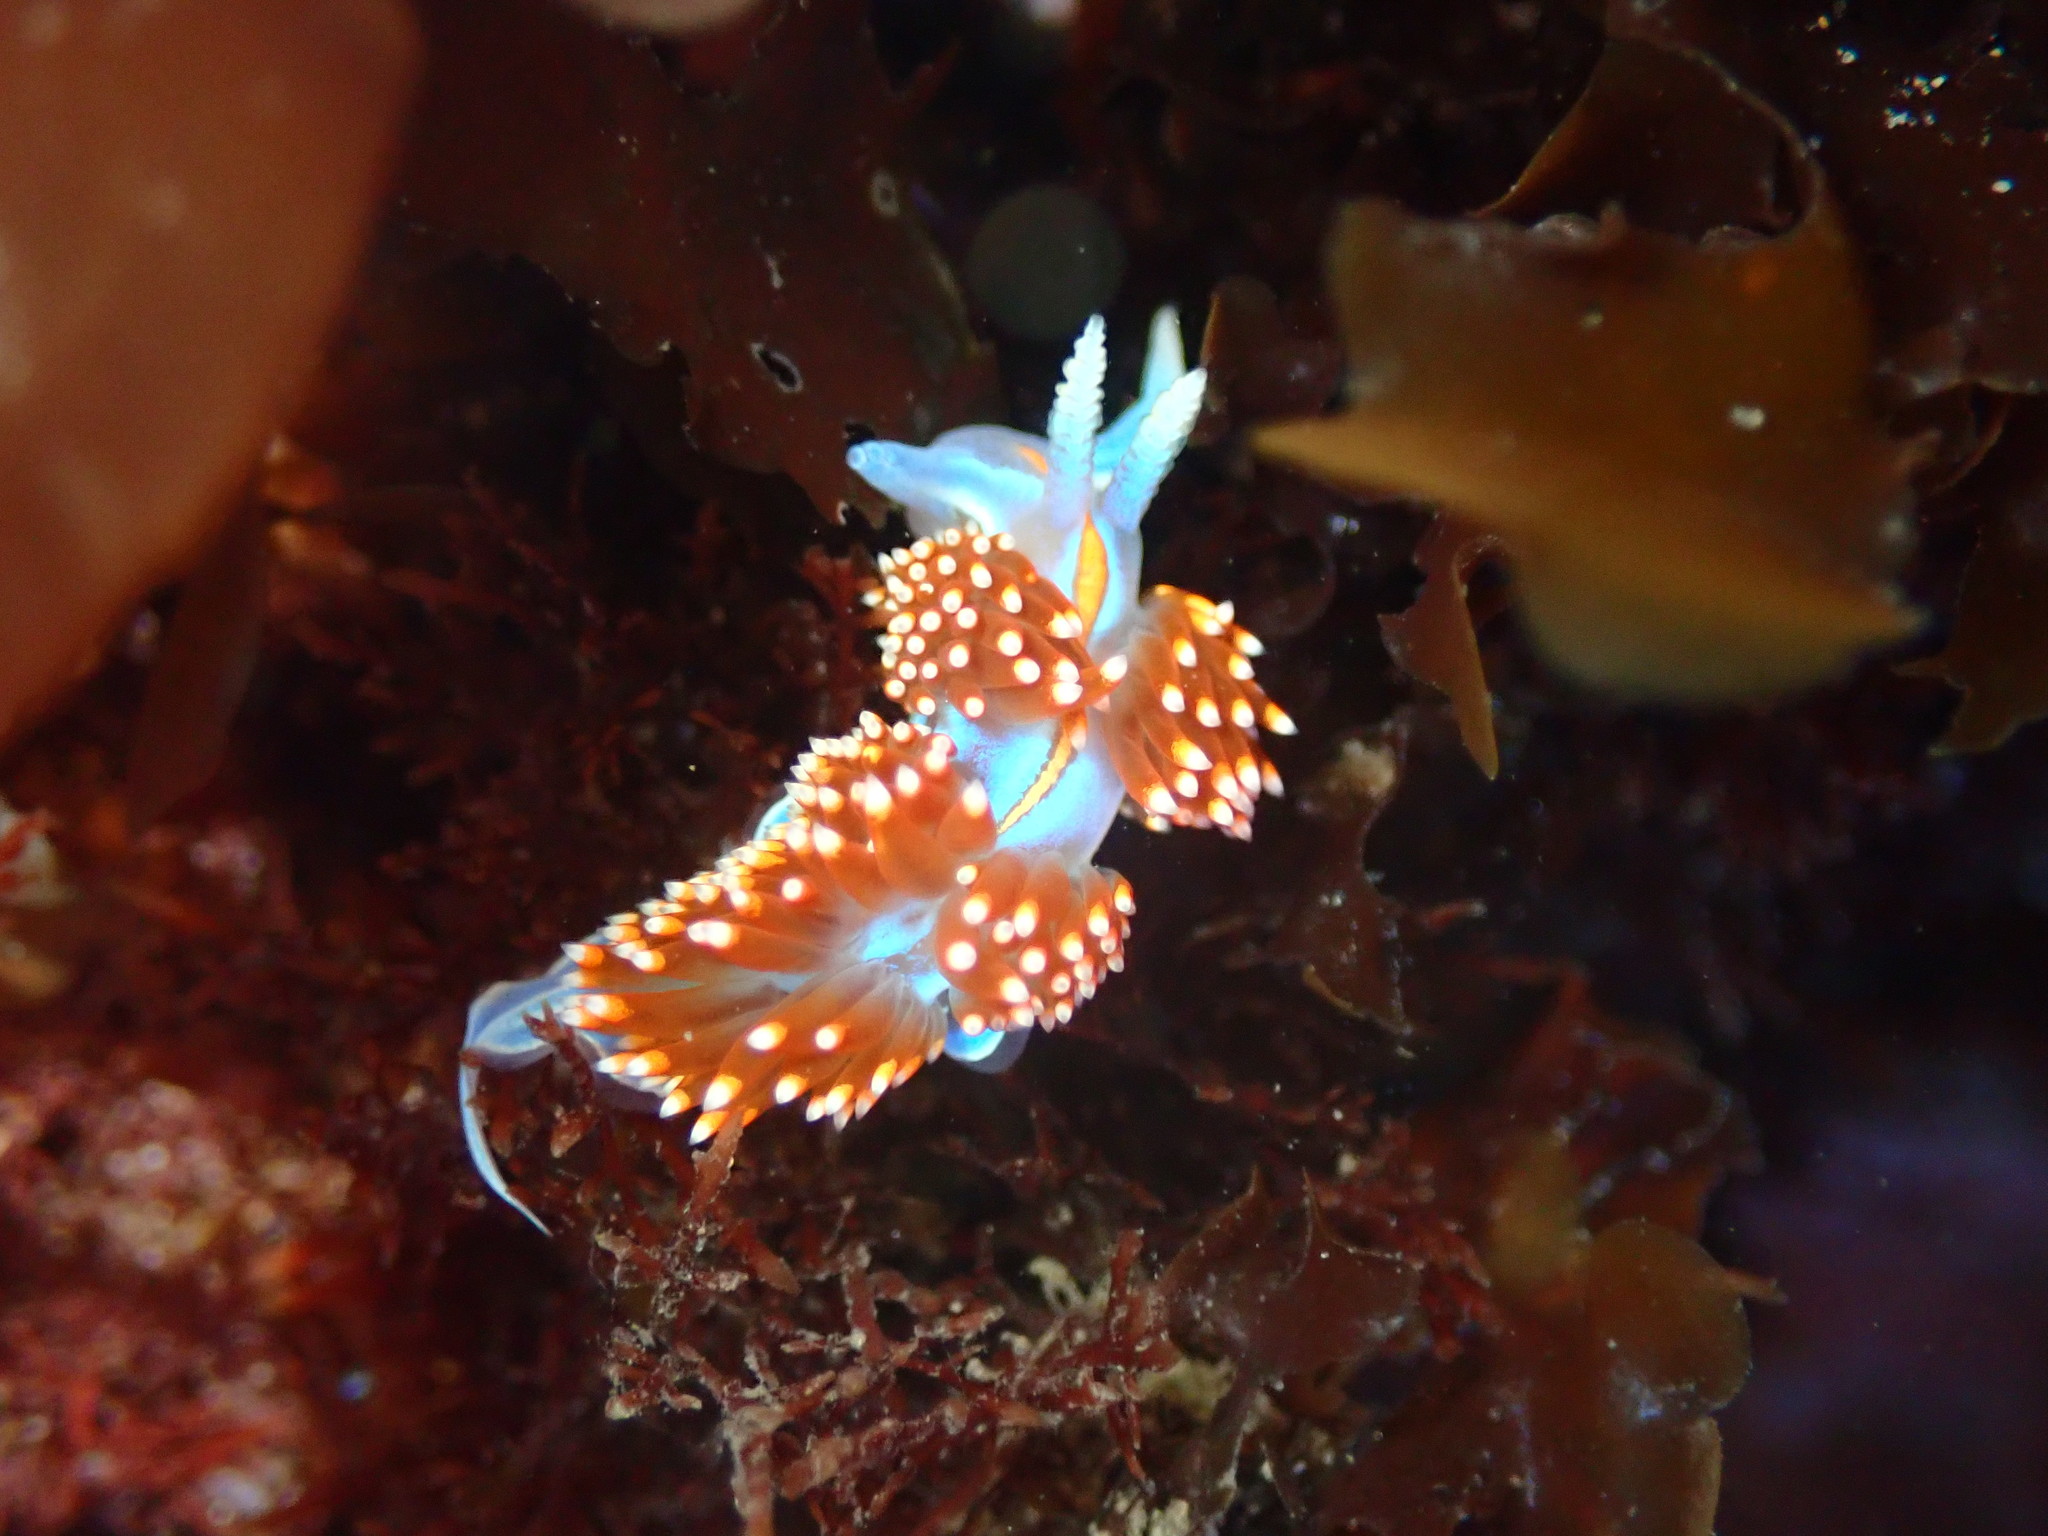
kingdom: Animalia
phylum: Mollusca
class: Gastropoda
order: Nudibranchia
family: Myrrhinidae
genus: Hermissenda
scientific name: Hermissenda opalescens
